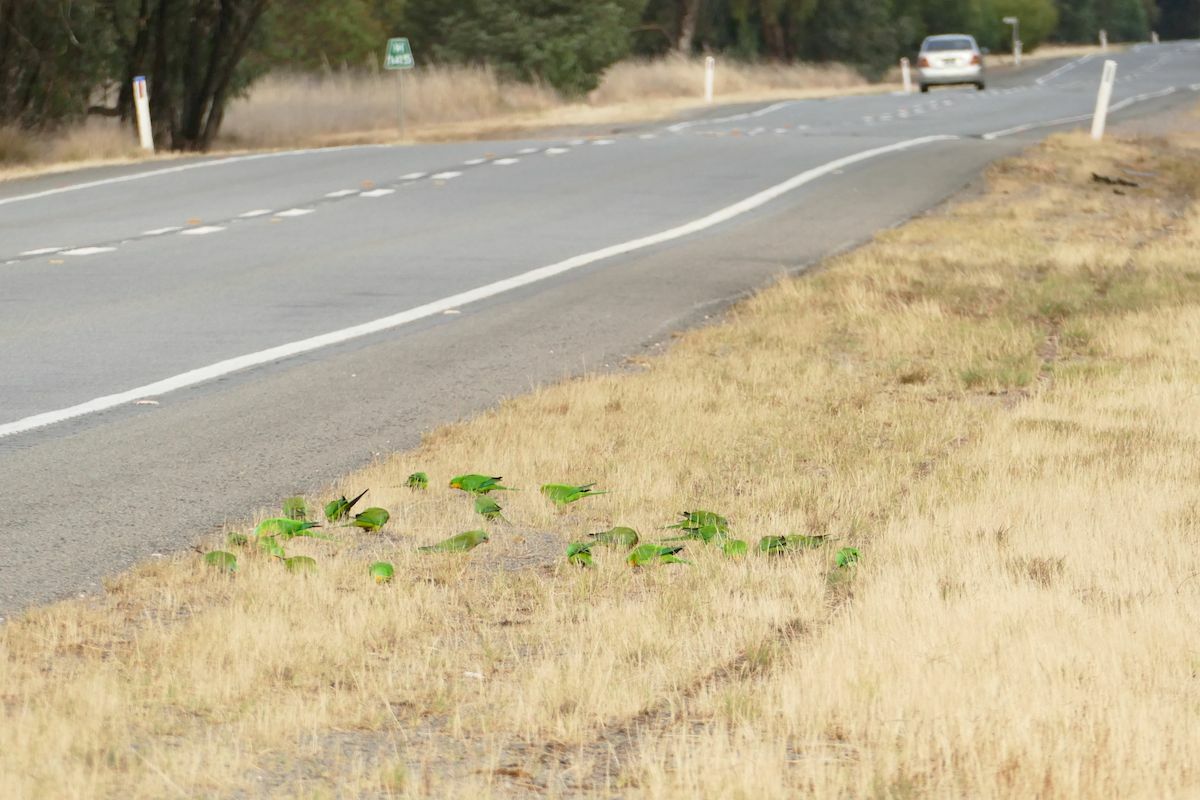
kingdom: Animalia
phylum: Chordata
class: Aves
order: Psittaciformes
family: Psittacidae
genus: Polytelis
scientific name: Polytelis swainsonii
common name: Superb parrot
